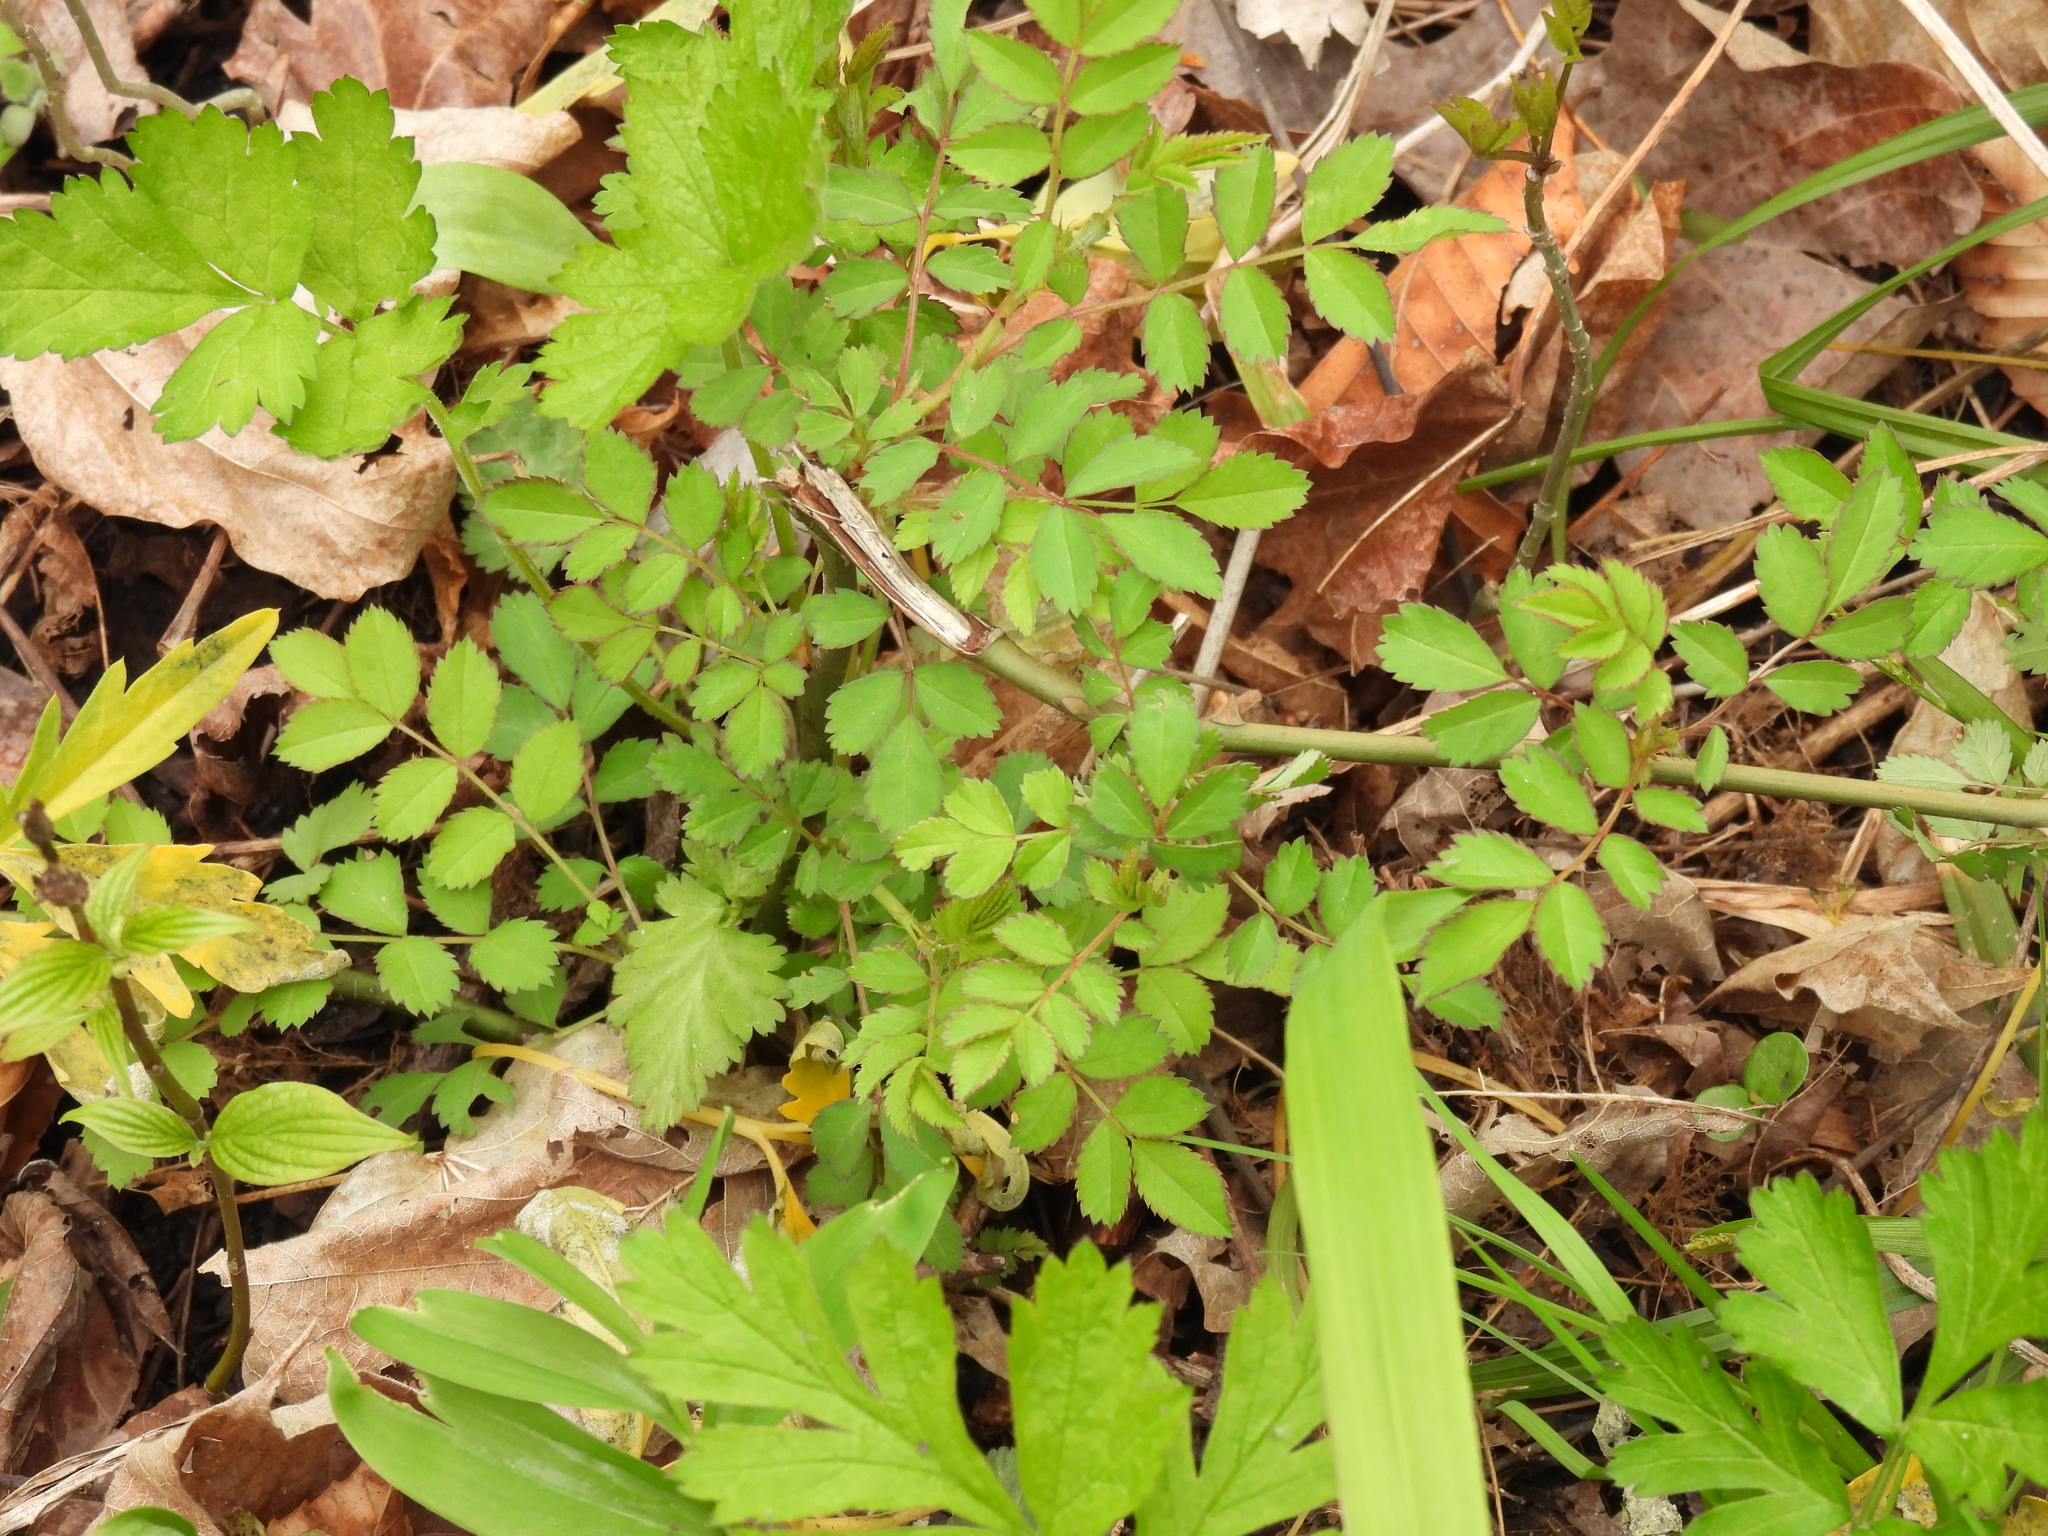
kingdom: Plantae
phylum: Tracheophyta
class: Magnoliopsida
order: Rosales
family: Rosaceae
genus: Rosa
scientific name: Rosa multiflora
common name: Multiflora rose
